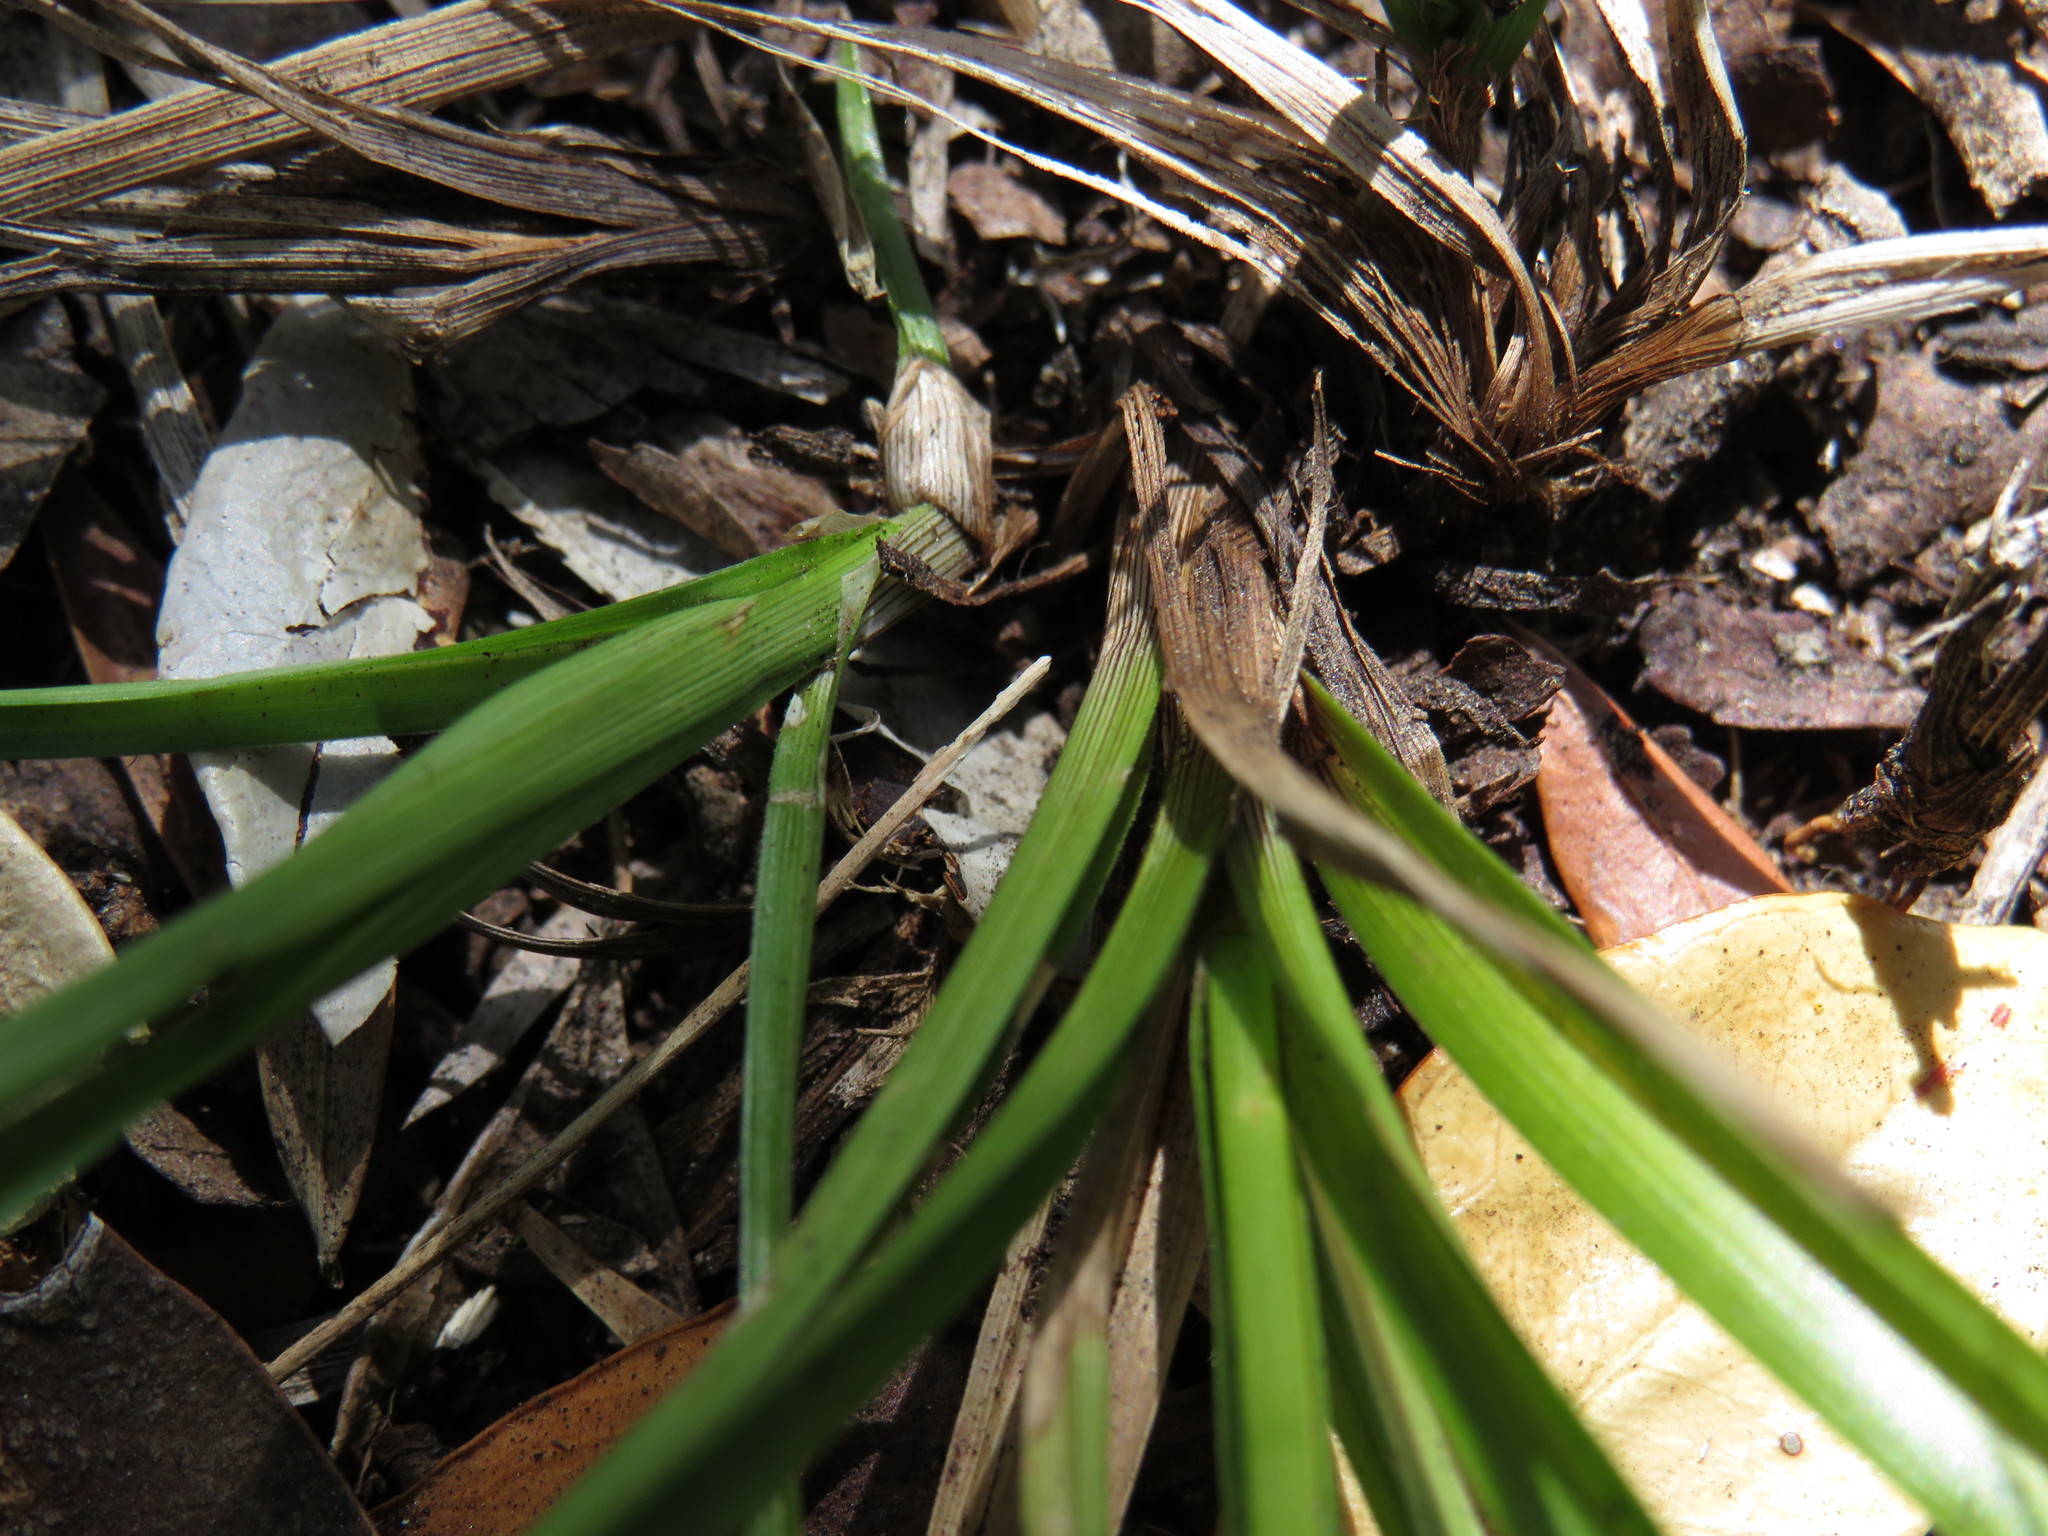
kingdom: Plantae
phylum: Tracheophyta
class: Liliopsida
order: Poales
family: Cyperaceae
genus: Carex
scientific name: Carex uhligii
